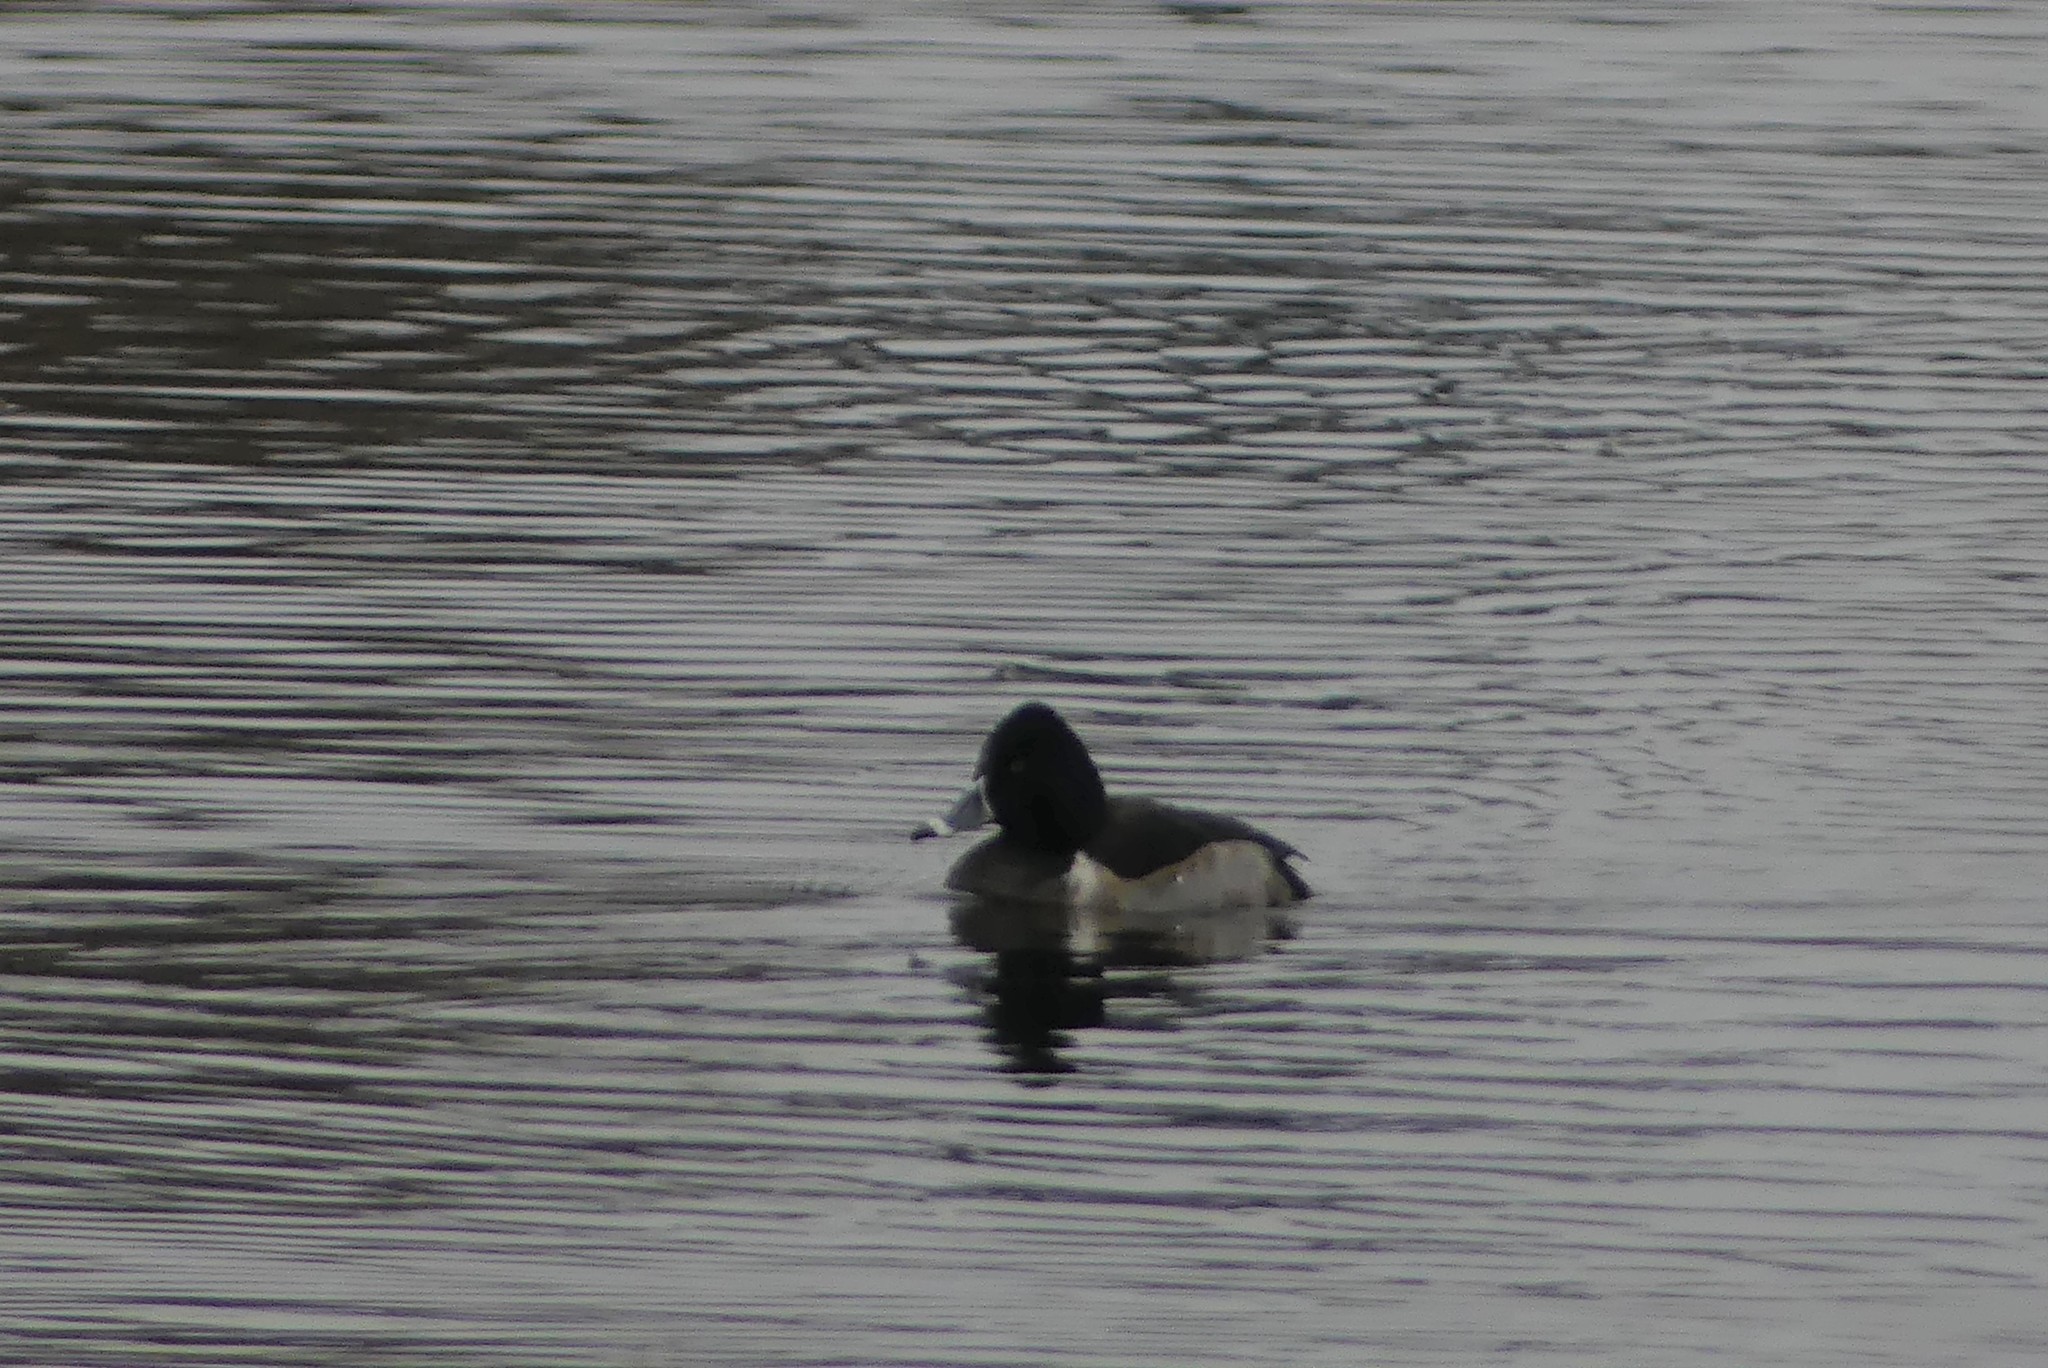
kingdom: Animalia
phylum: Chordata
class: Aves
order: Anseriformes
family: Anatidae
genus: Aythya
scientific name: Aythya collaris
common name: Ring-necked duck
